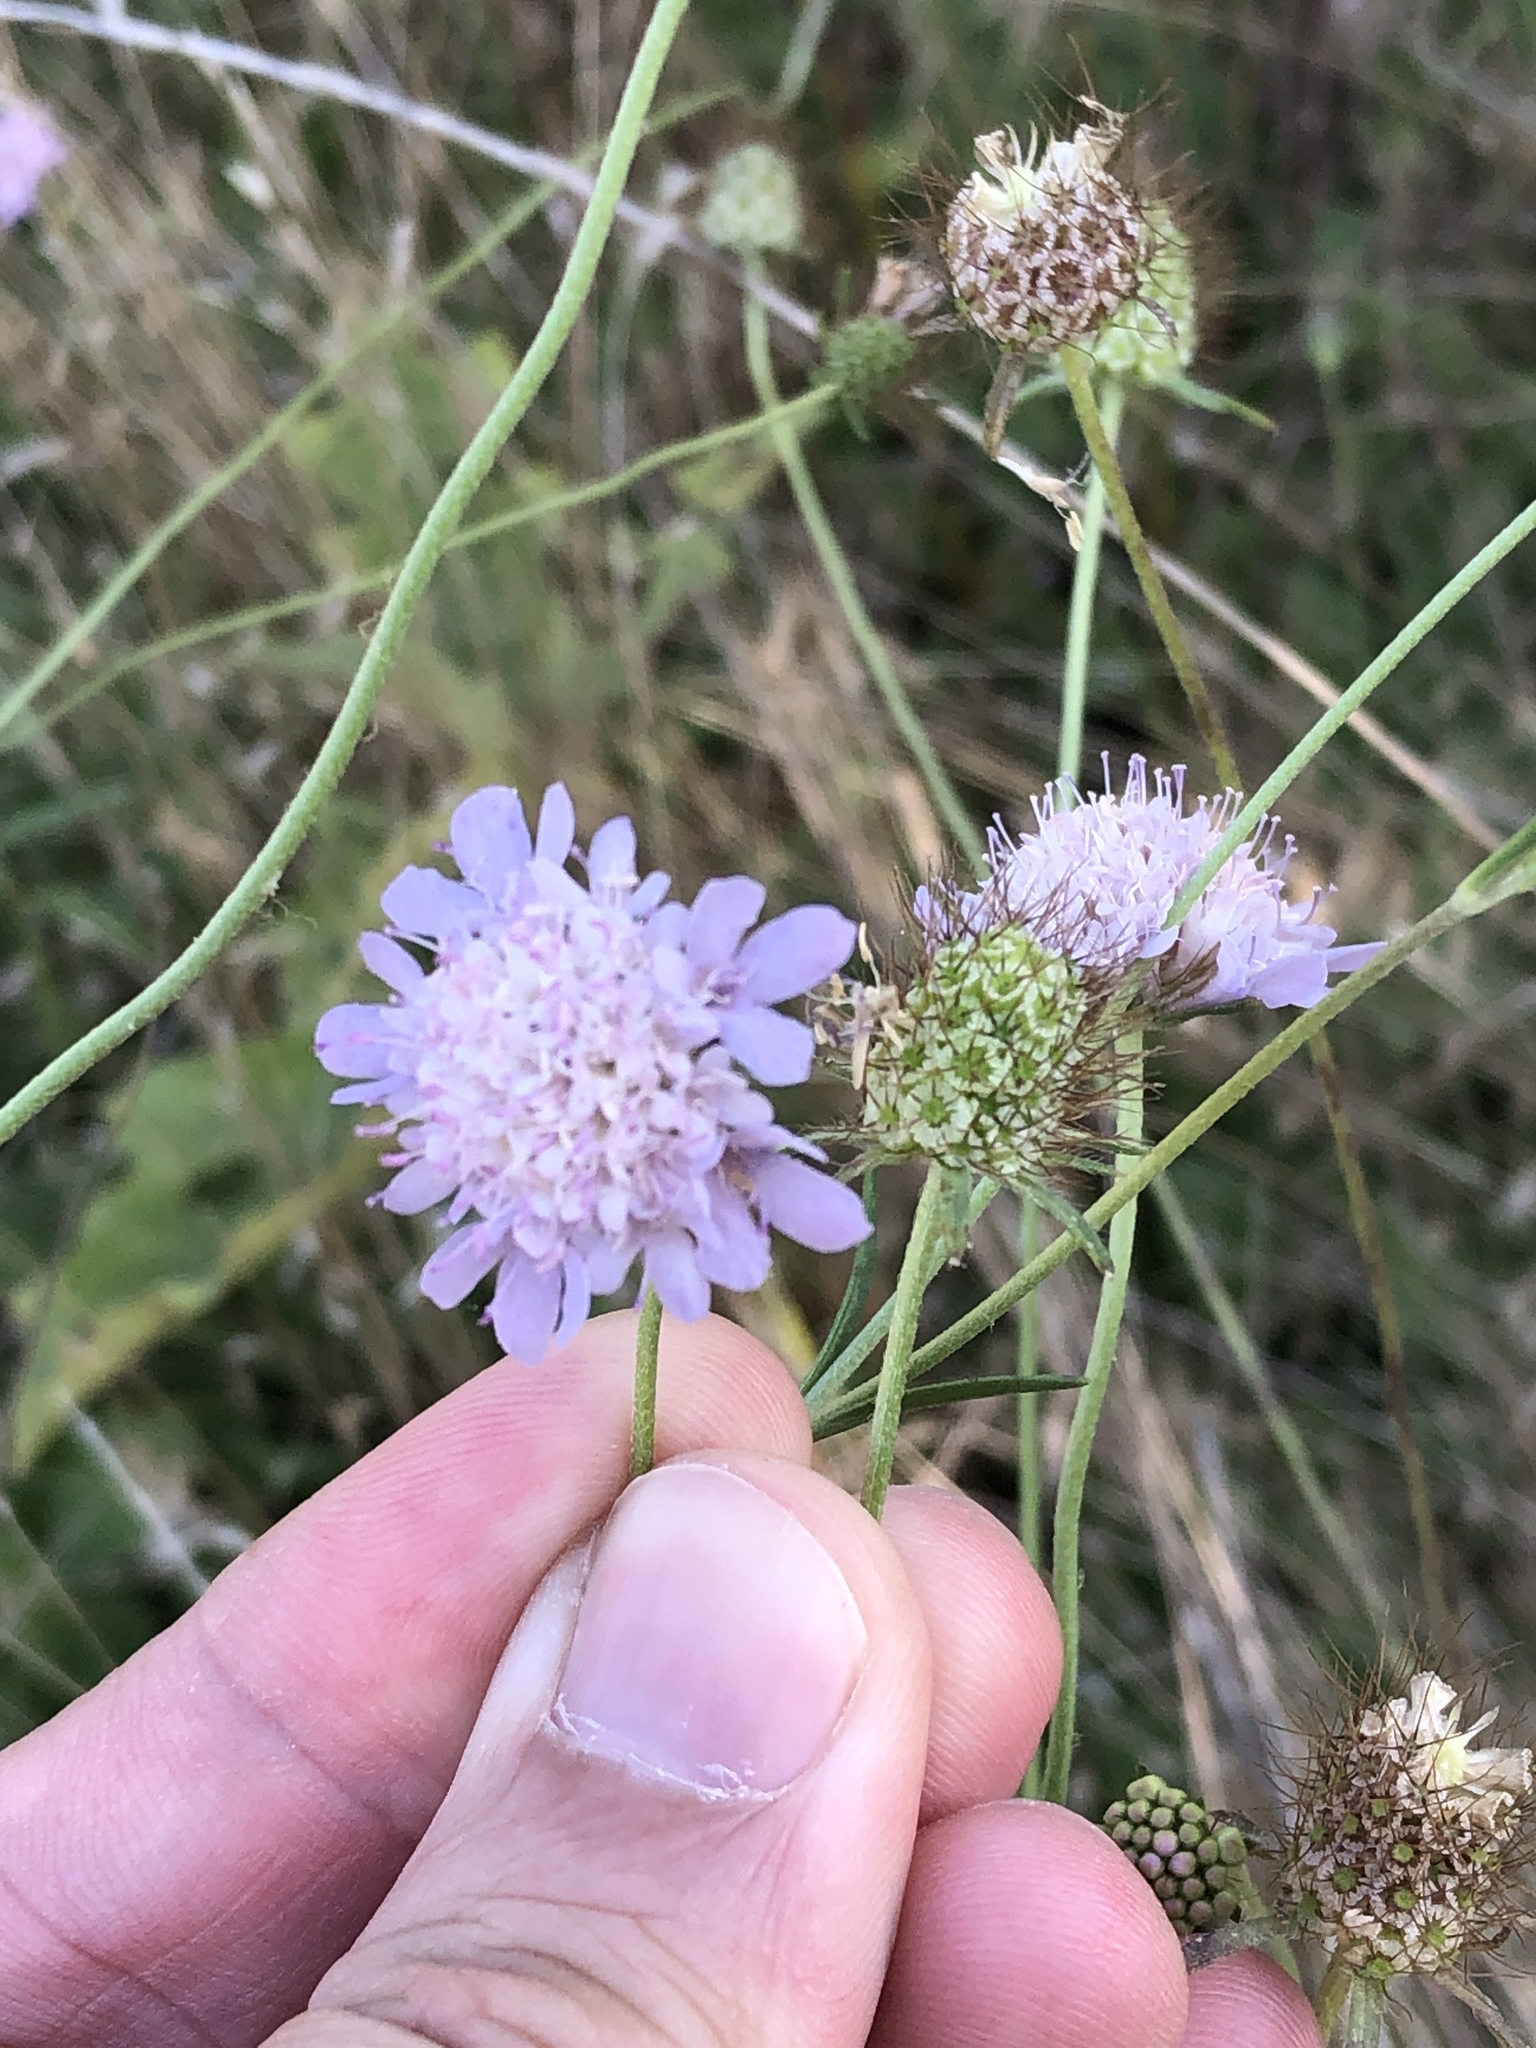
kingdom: Plantae
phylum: Tracheophyta
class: Magnoliopsida
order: Dipsacales
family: Caprifoliaceae
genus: Sixalix
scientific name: Sixalix atropurpurea
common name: Sweet scabious
